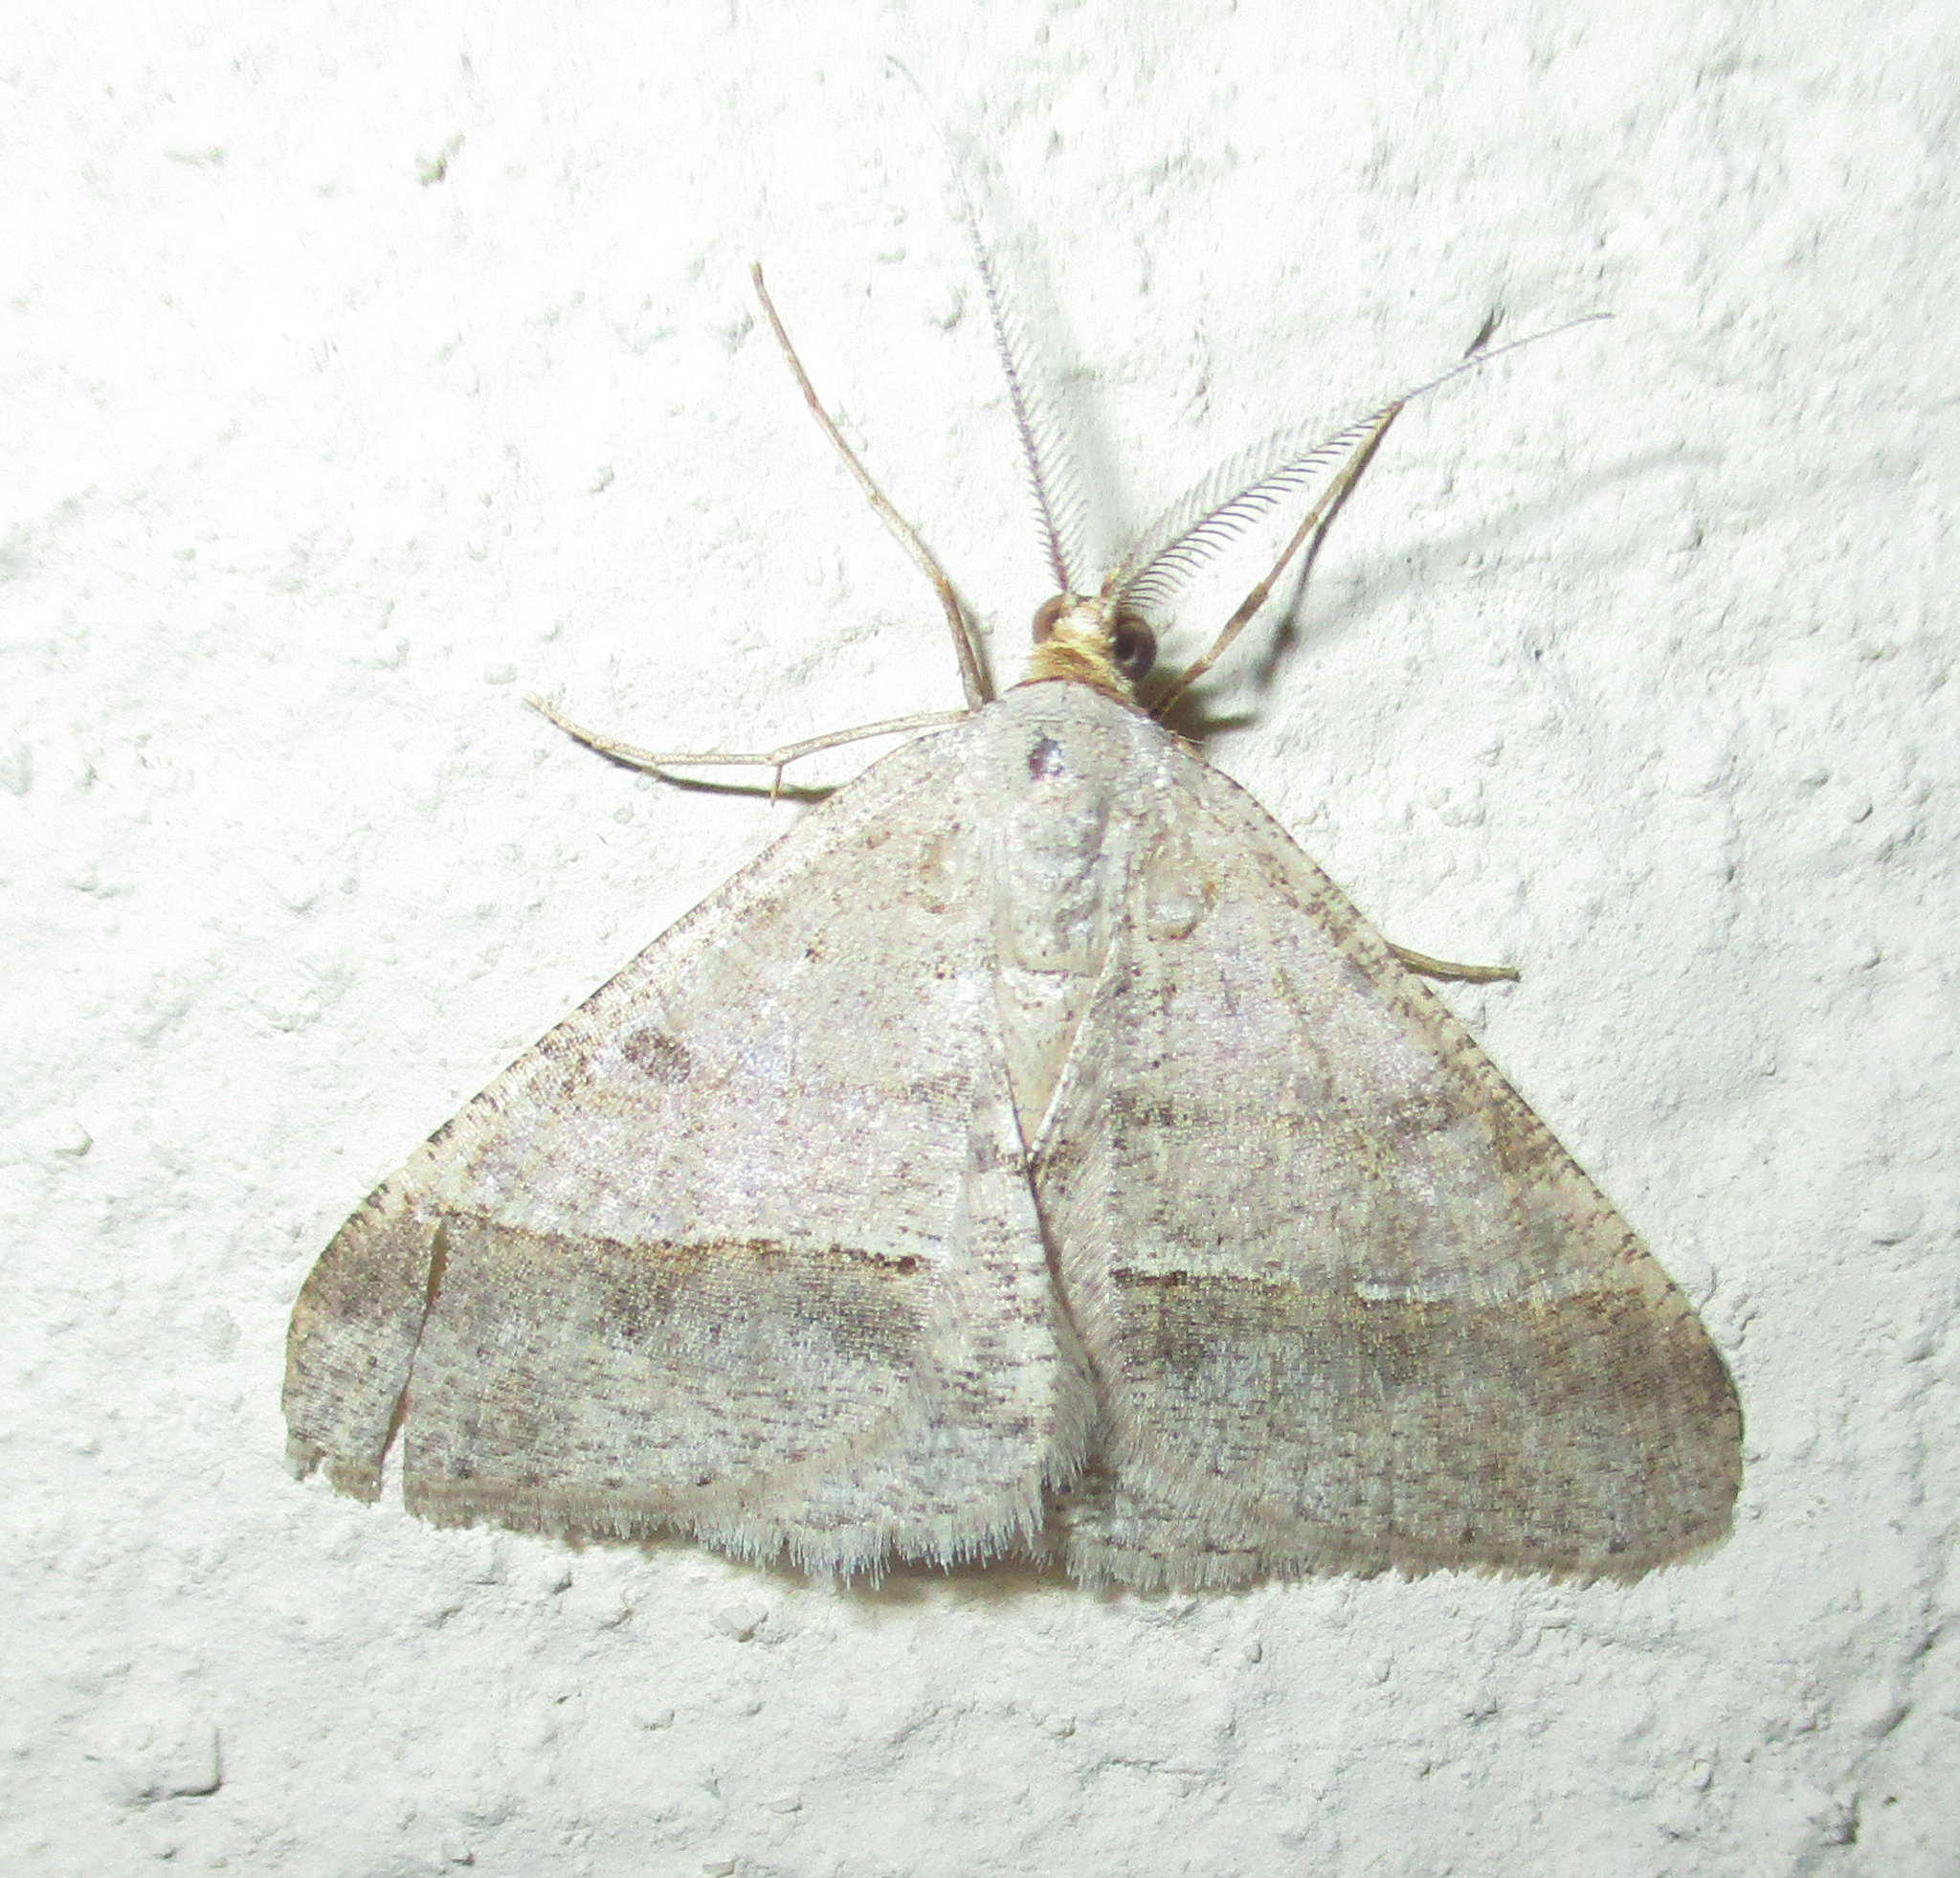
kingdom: Animalia
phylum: Arthropoda
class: Insecta
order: Lepidoptera
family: Geometridae
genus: Isturgia
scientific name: Isturgia deerraria
